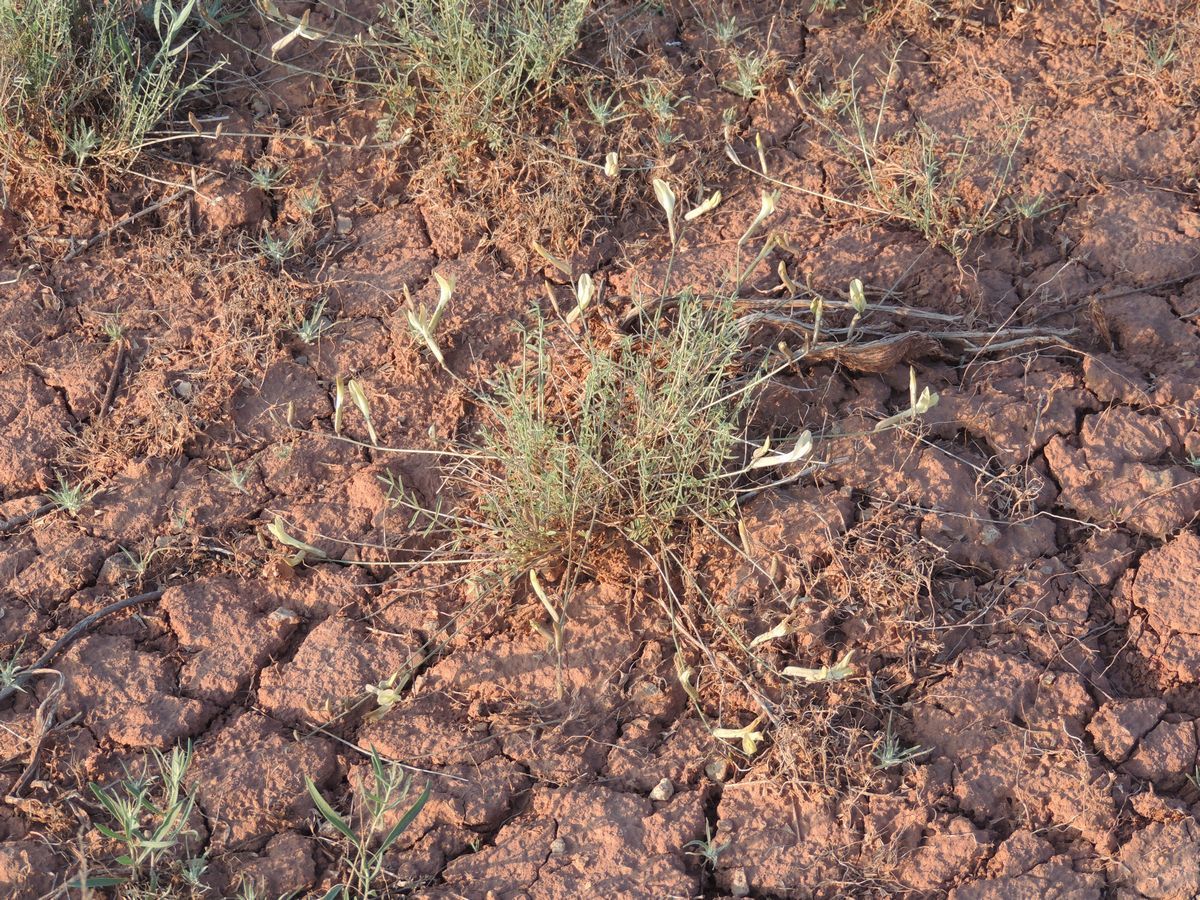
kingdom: Plantae
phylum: Tracheophyta
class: Magnoliopsida
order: Fabales
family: Fabaceae
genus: Astragalus
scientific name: Astragalus ucrainicus
